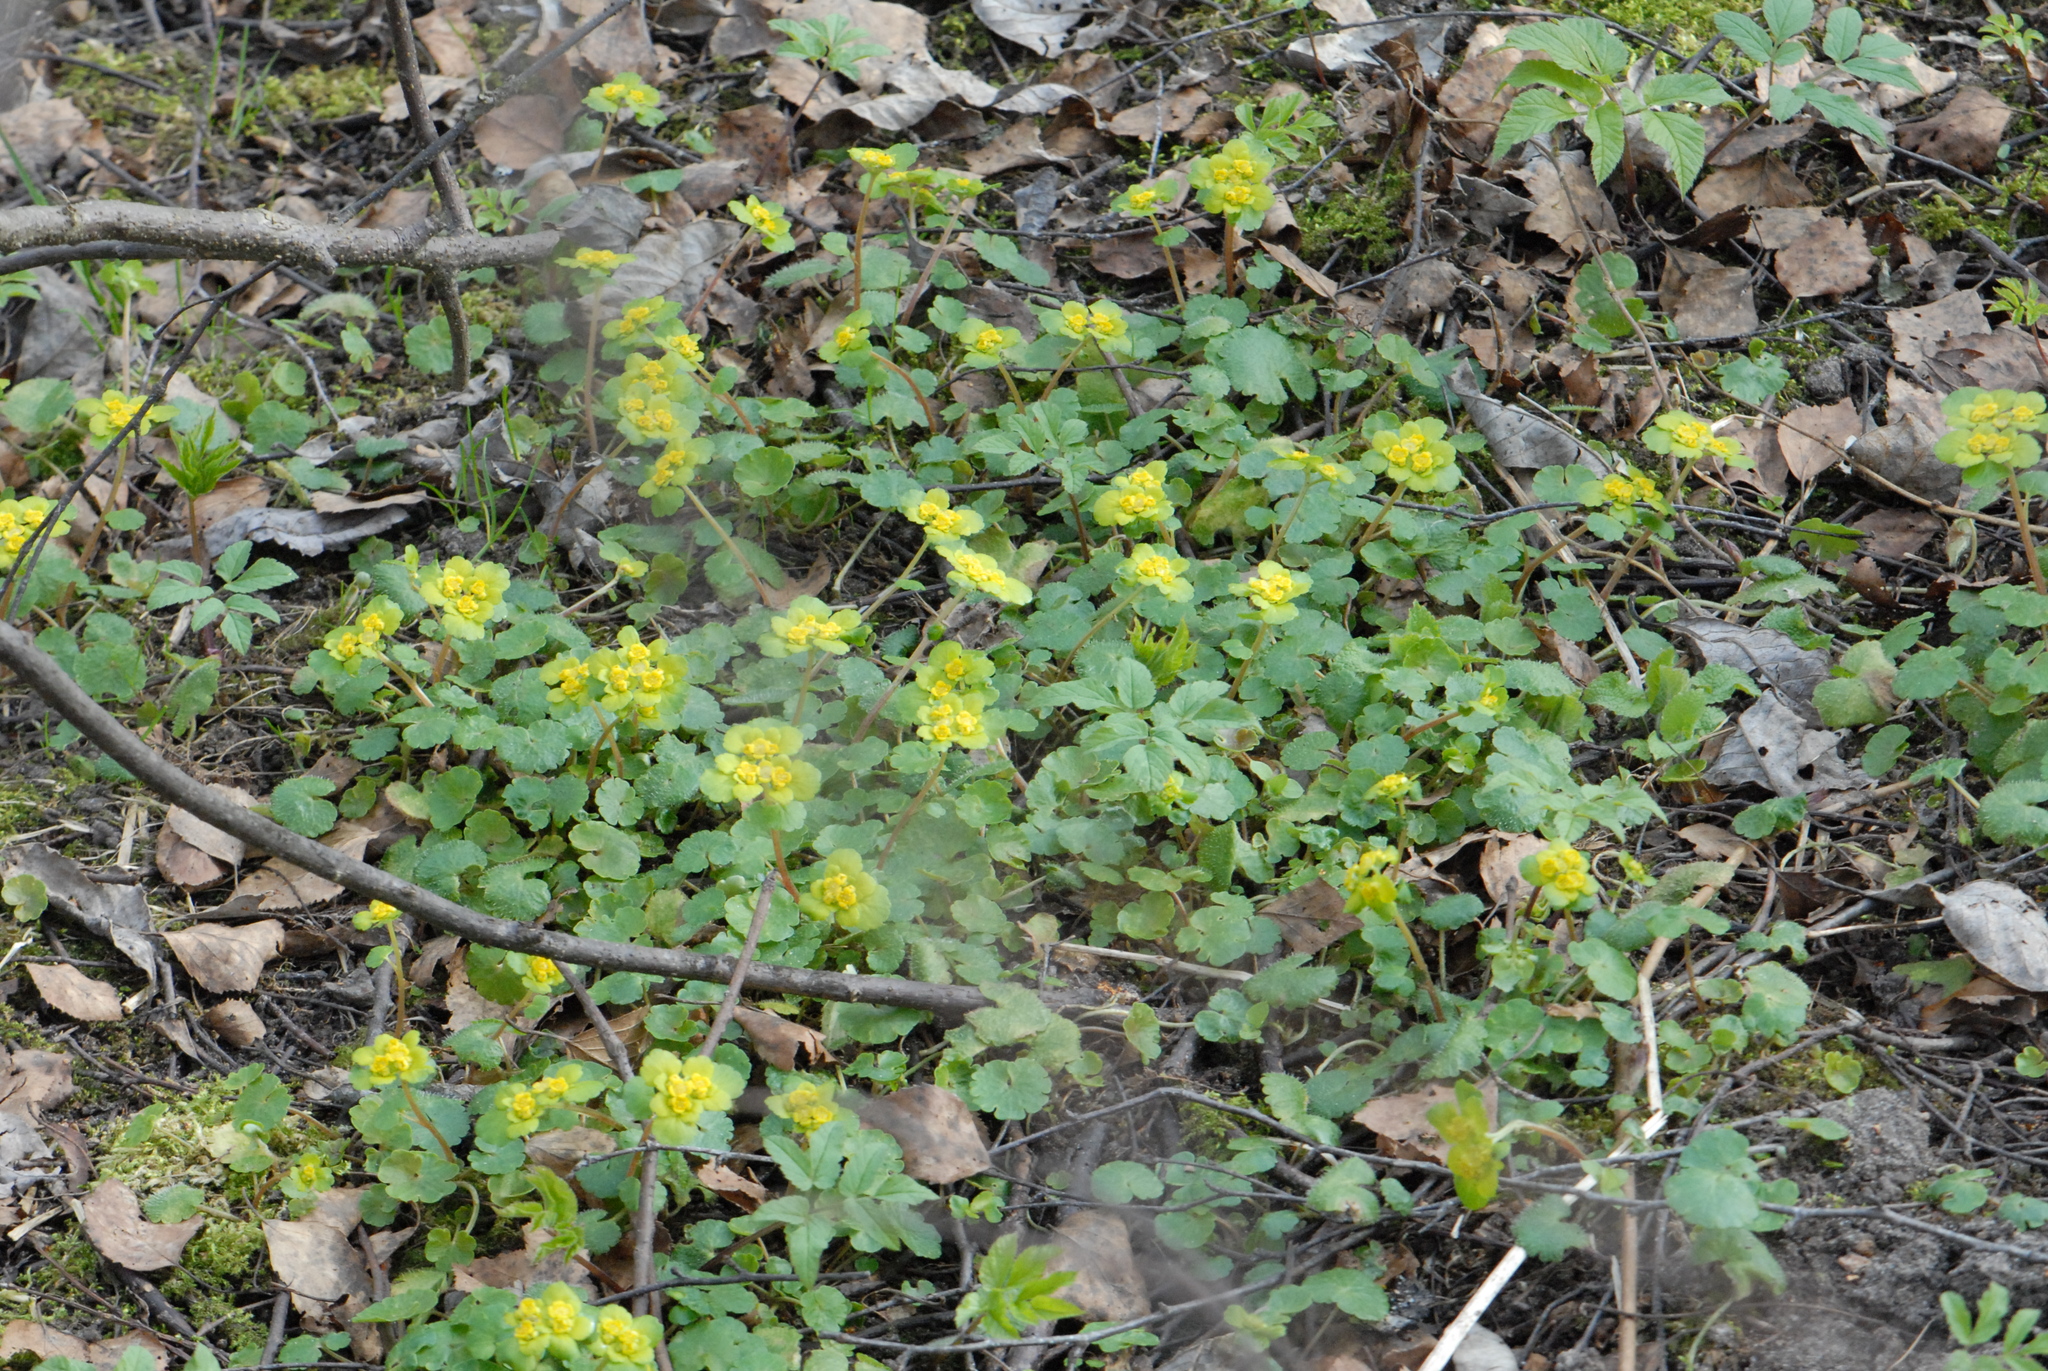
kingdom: Plantae
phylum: Tracheophyta
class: Magnoliopsida
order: Saxifragales
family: Saxifragaceae
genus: Chrysosplenium
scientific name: Chrysosplenium alternifolium
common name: Alternate-leaved golden-saxifrage
